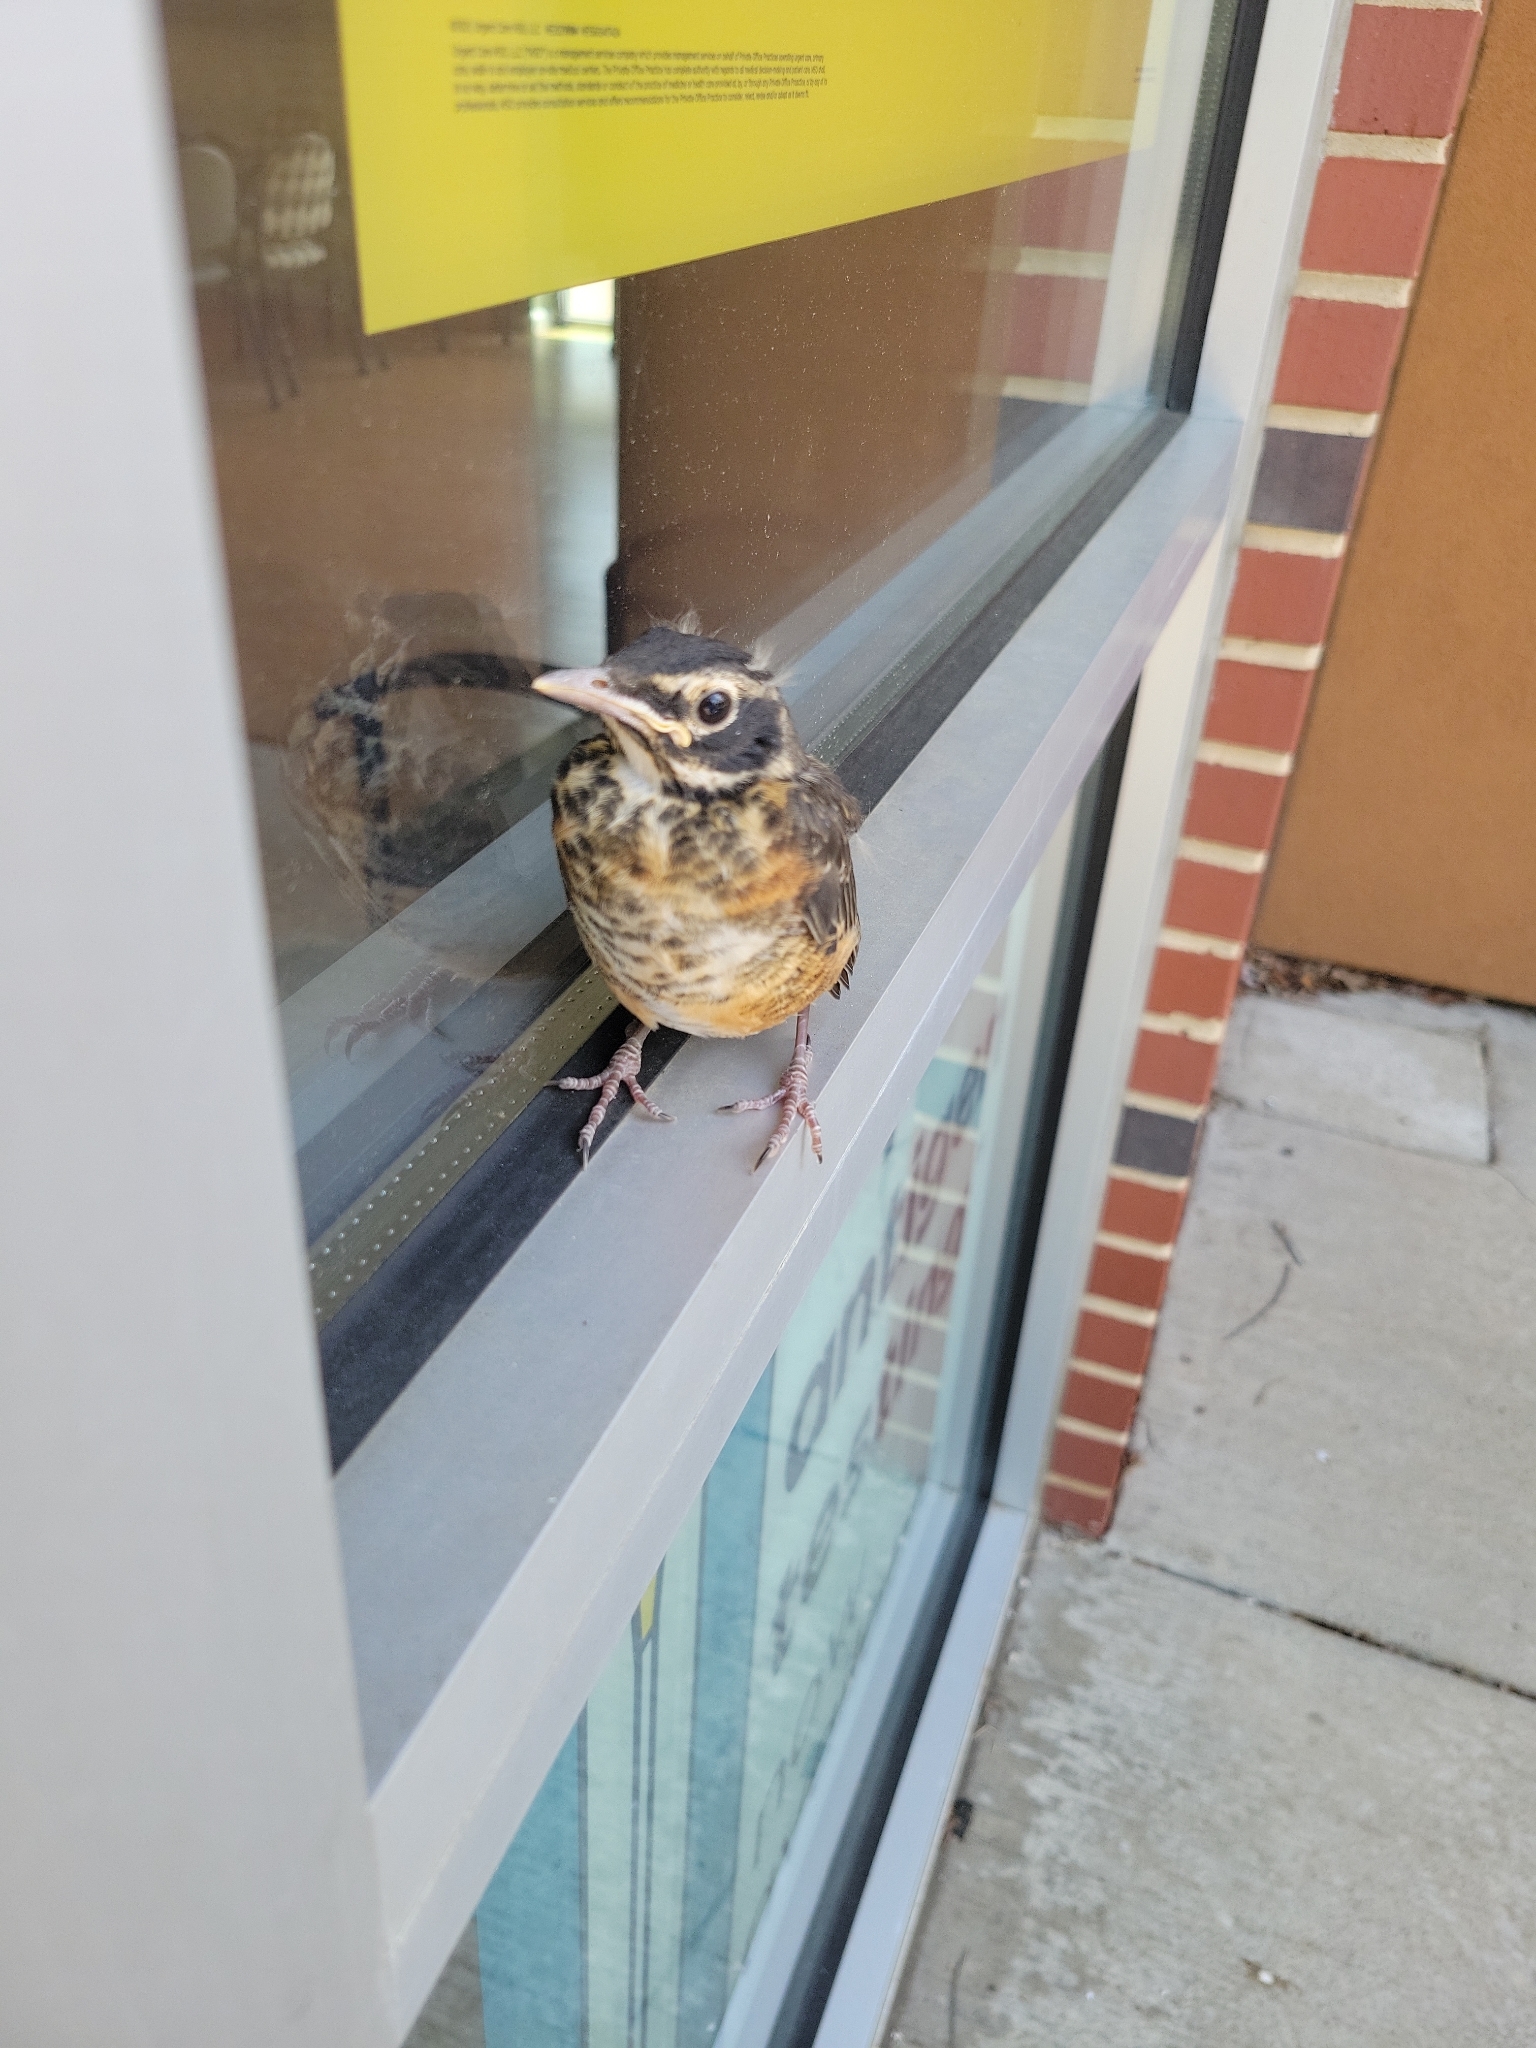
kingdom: Animalia
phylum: Chordata
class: Aves
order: Passeriformes
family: Turdidae
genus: Turdus
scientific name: Turdus migratorius
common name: American robin
